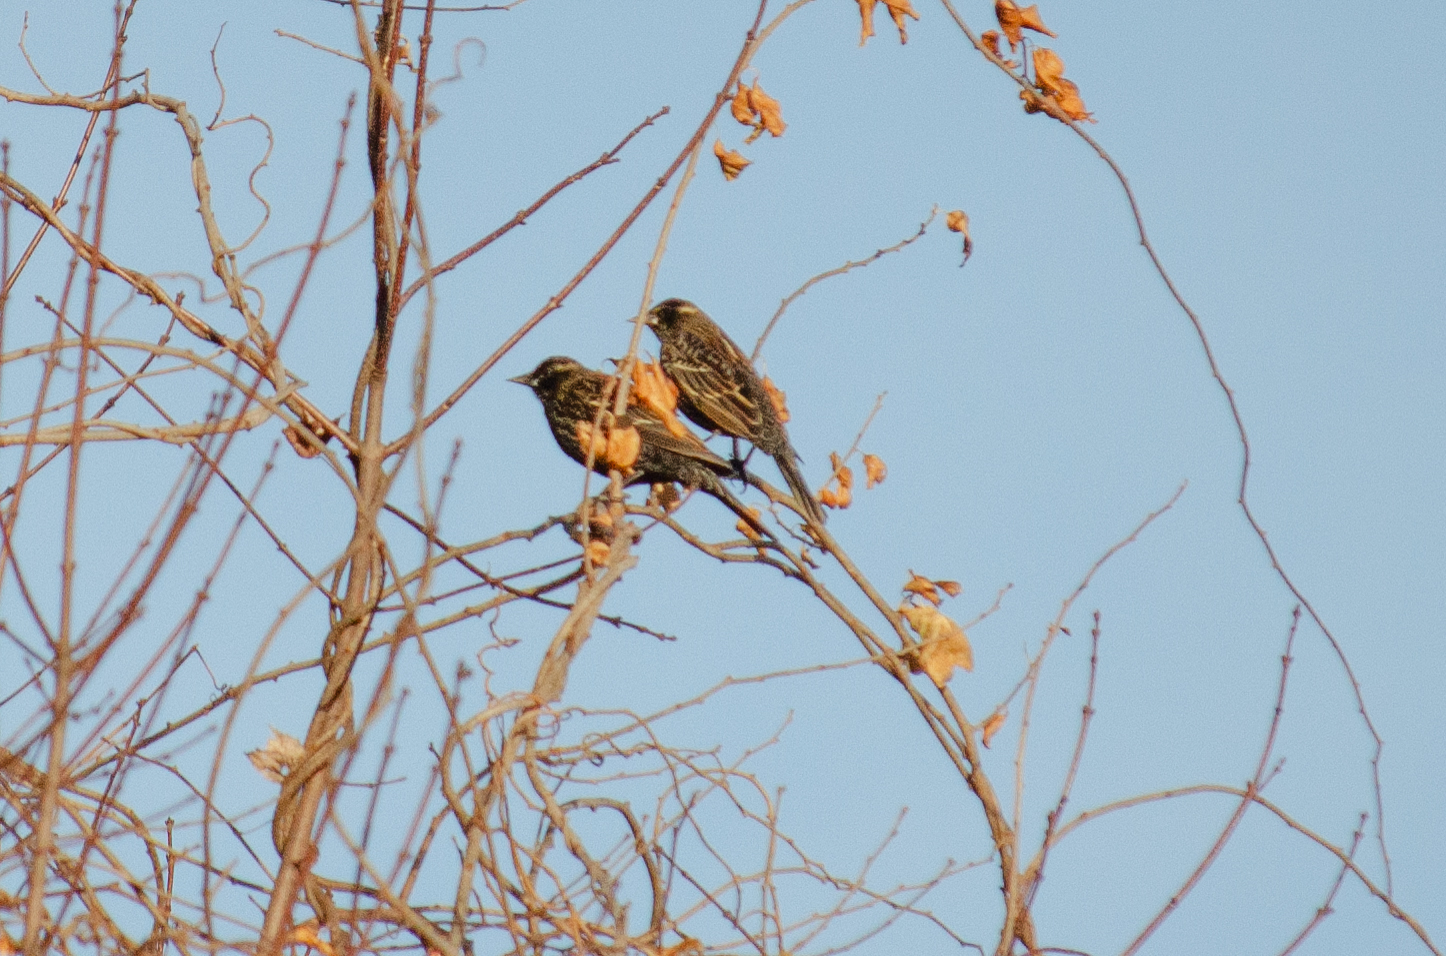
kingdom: Animalia
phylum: Chordata
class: Aves
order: Passeriformes
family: Icteridae
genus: Agelaius
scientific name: Agelaius phoeniceus
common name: Red-winged blackbird
